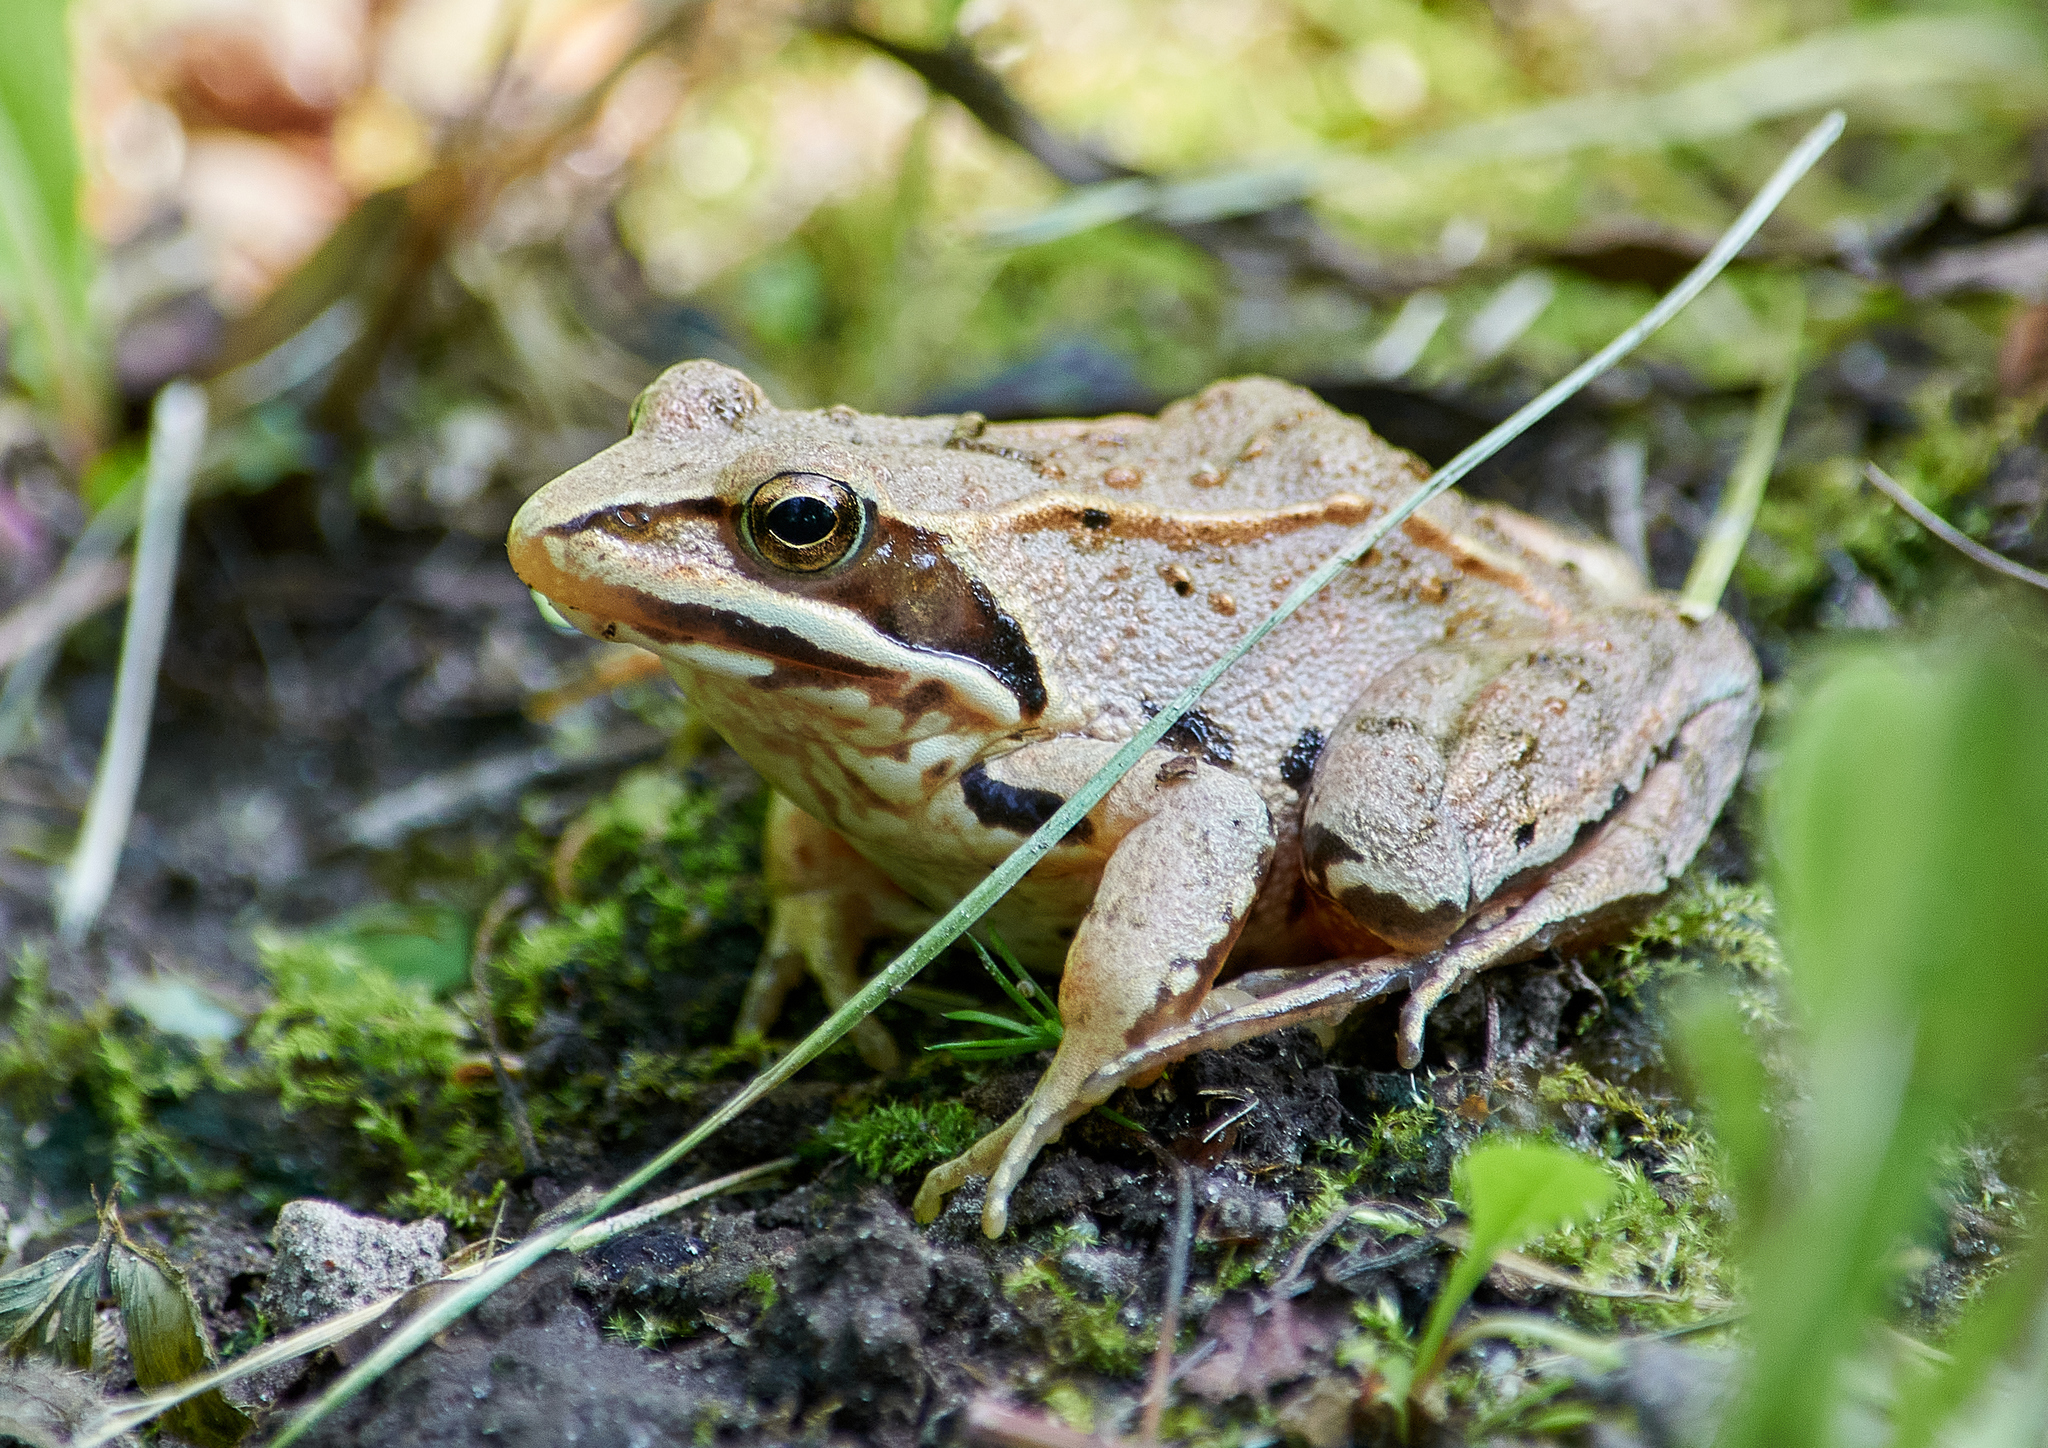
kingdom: Animalia
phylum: Chordata
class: Amphibia
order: Anura
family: Ranidae
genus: Rana
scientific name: Rana arvalis
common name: Moor frog
